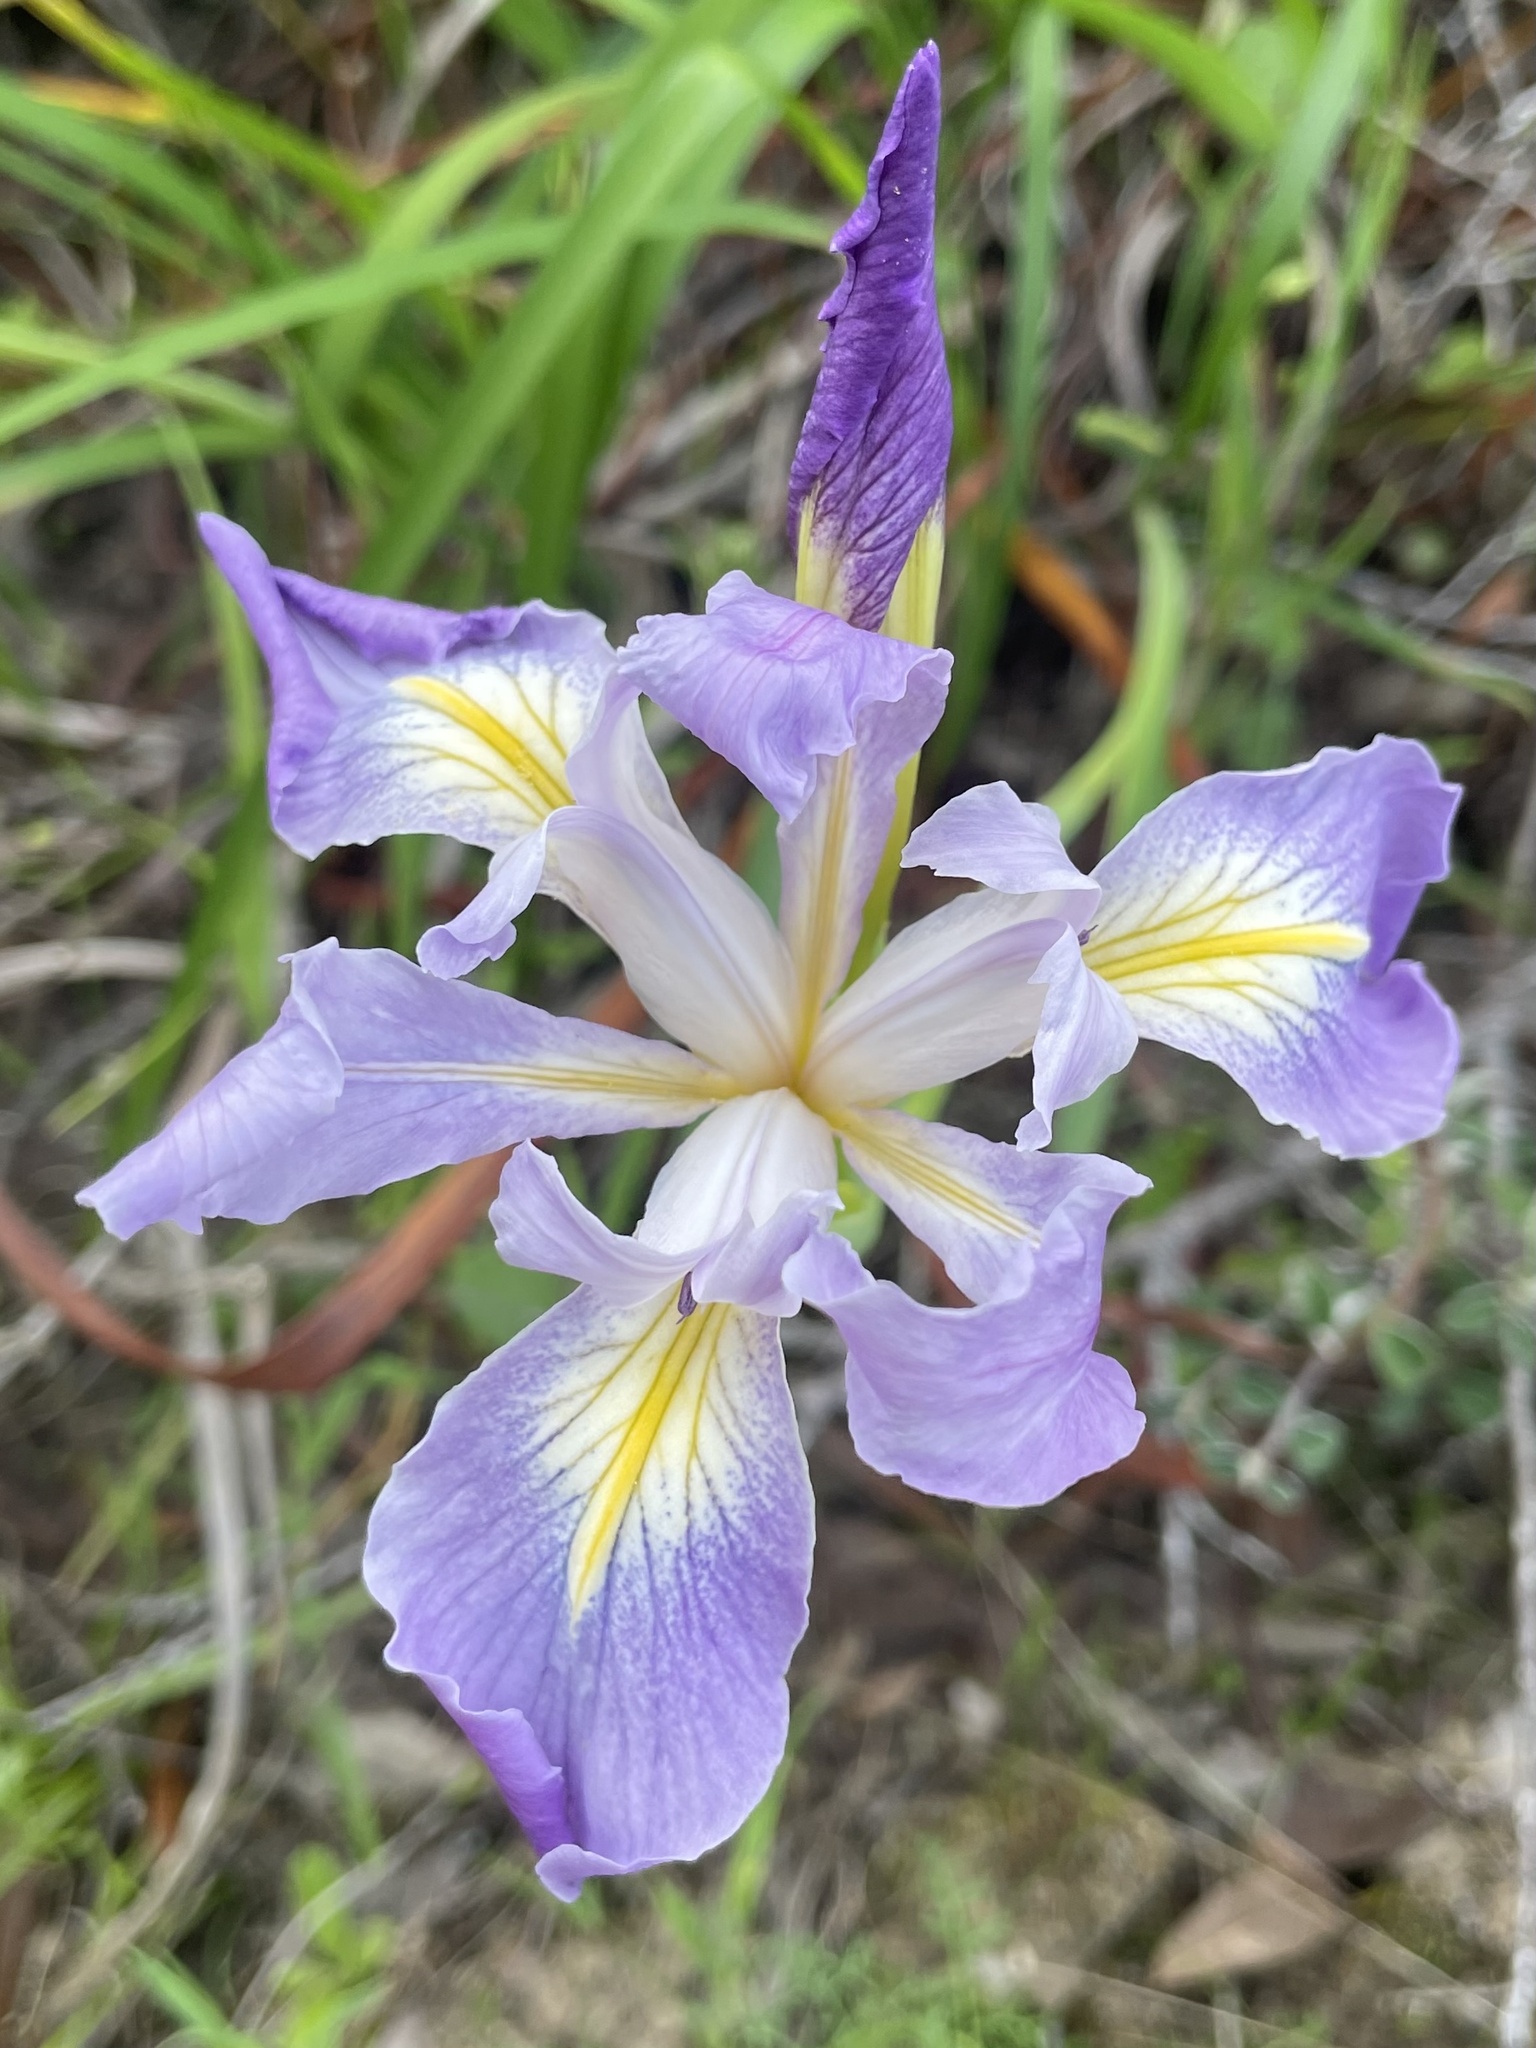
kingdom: Plantae
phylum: Tracheophyta
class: Liliopsida
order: Asparagales
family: Iridaceae
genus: Iris
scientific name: Iris douglasiana
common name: Marin iris
